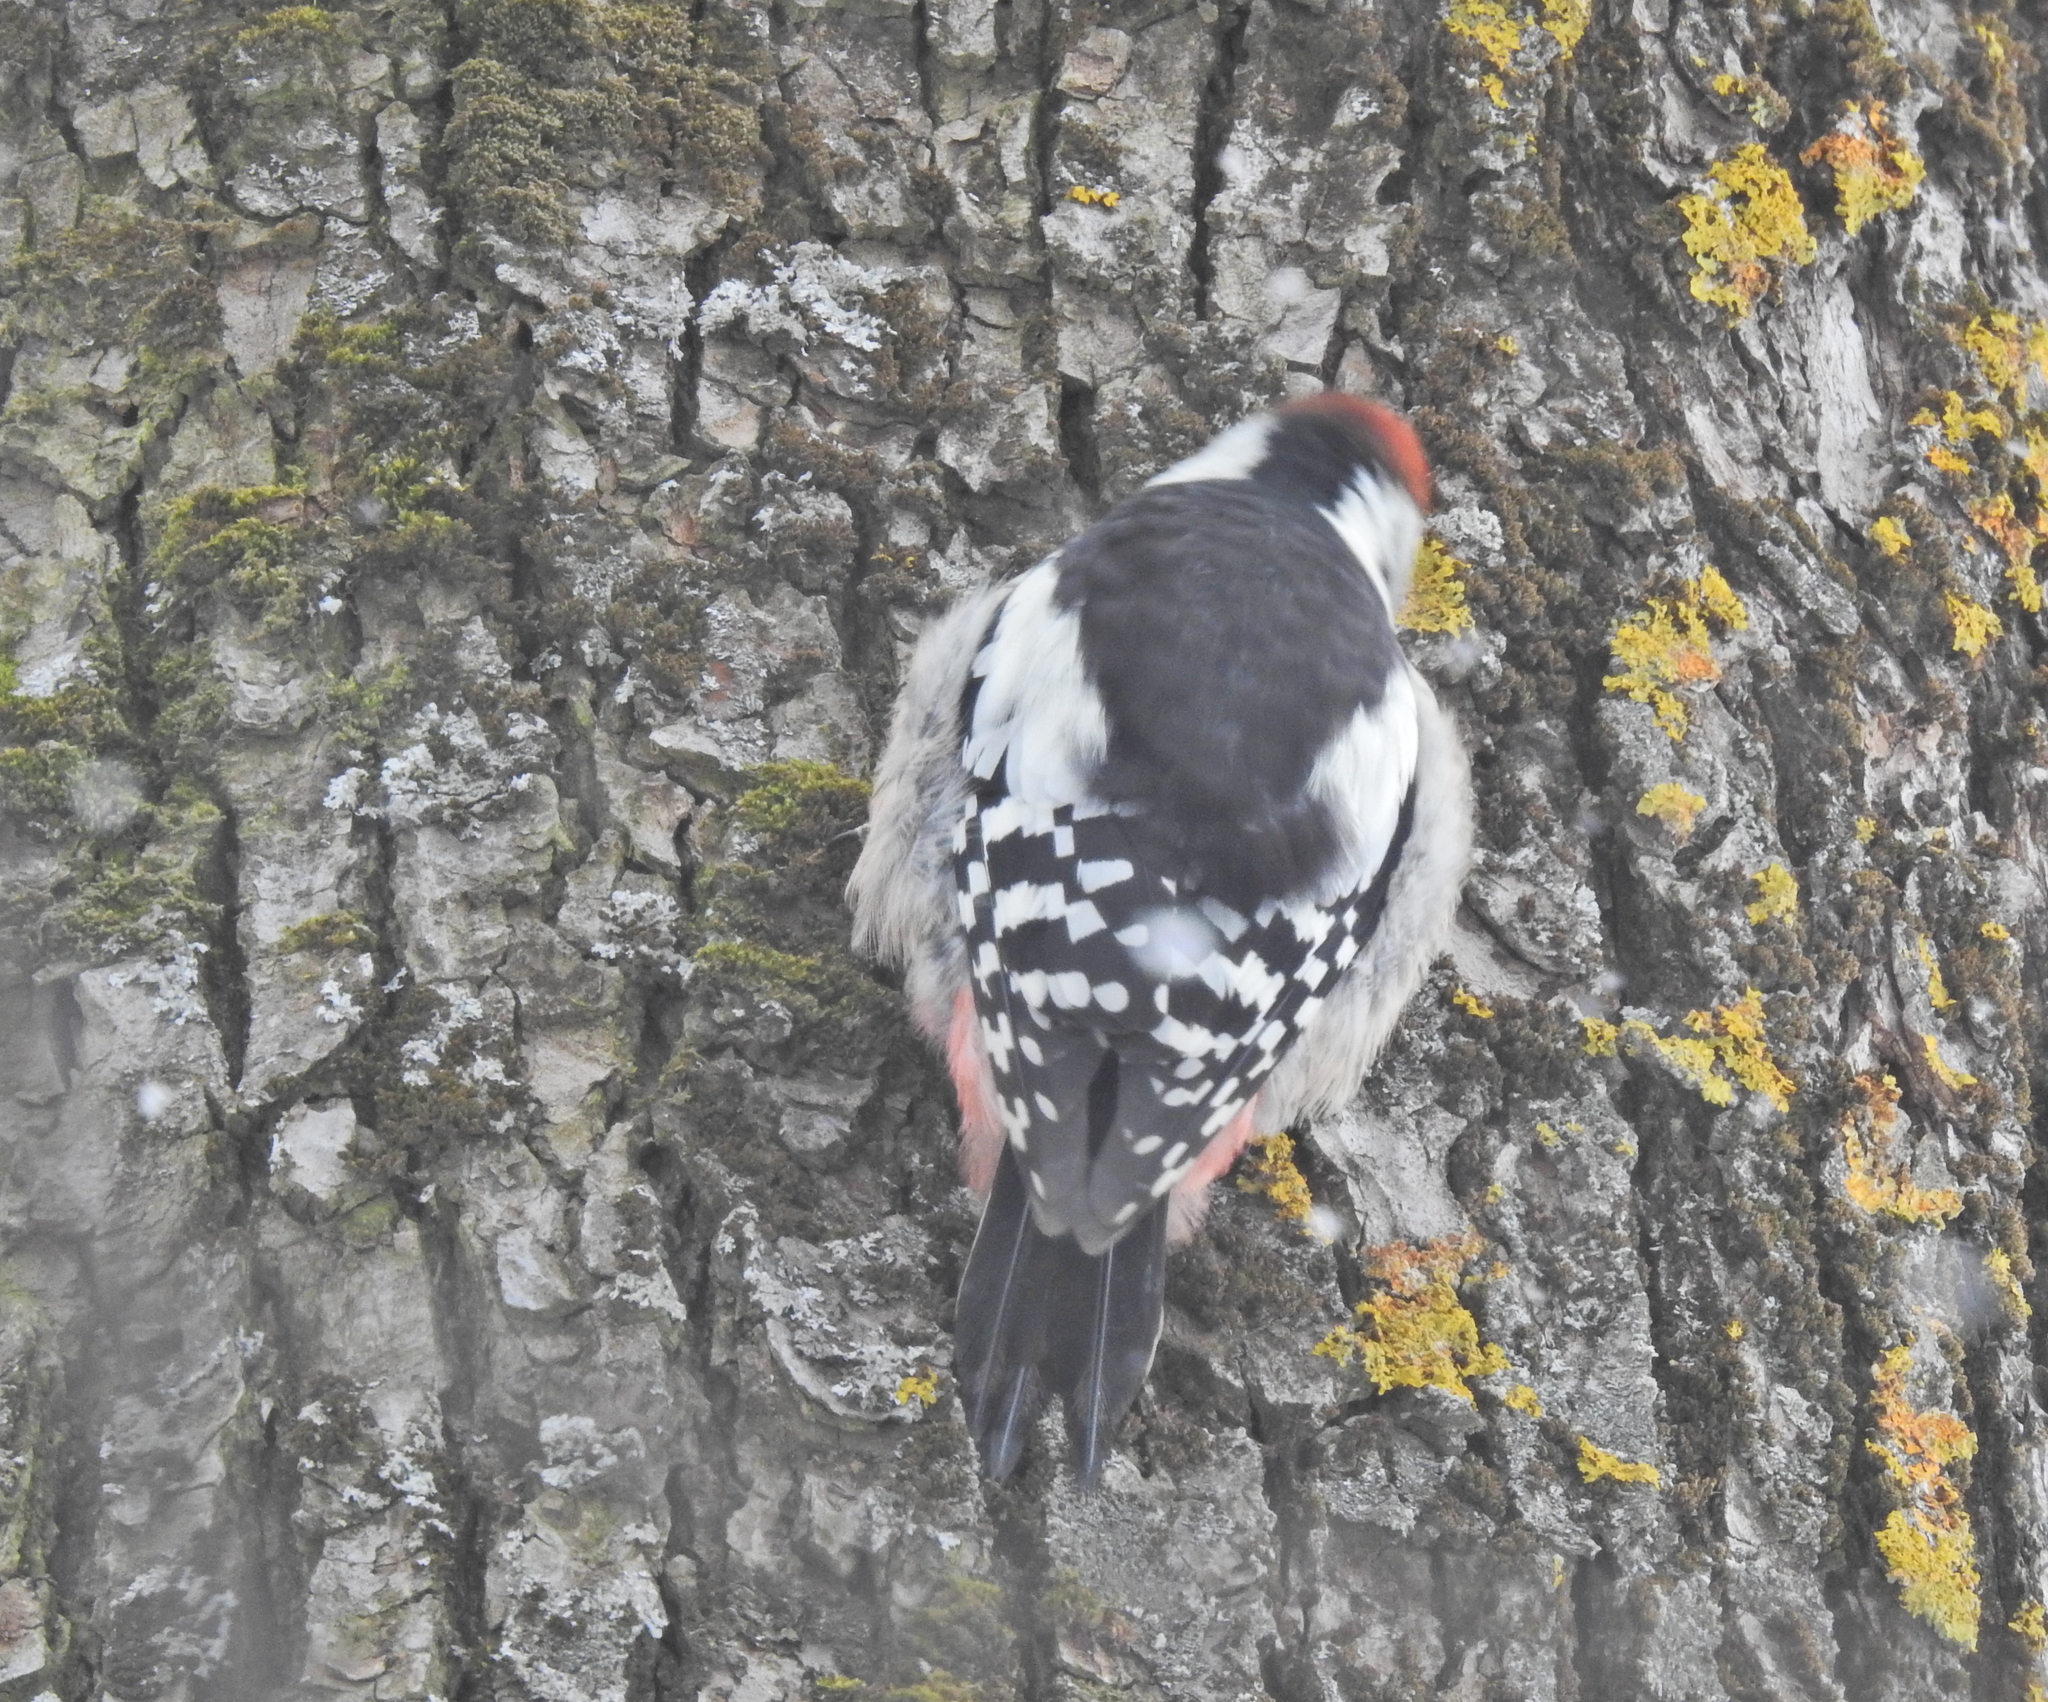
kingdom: Animalia
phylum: Chordata
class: Aves
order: Piciformes
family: Picidae
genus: Dendrocoptes
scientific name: Dendrocoptes medius
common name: Middle spotted woodpecker
